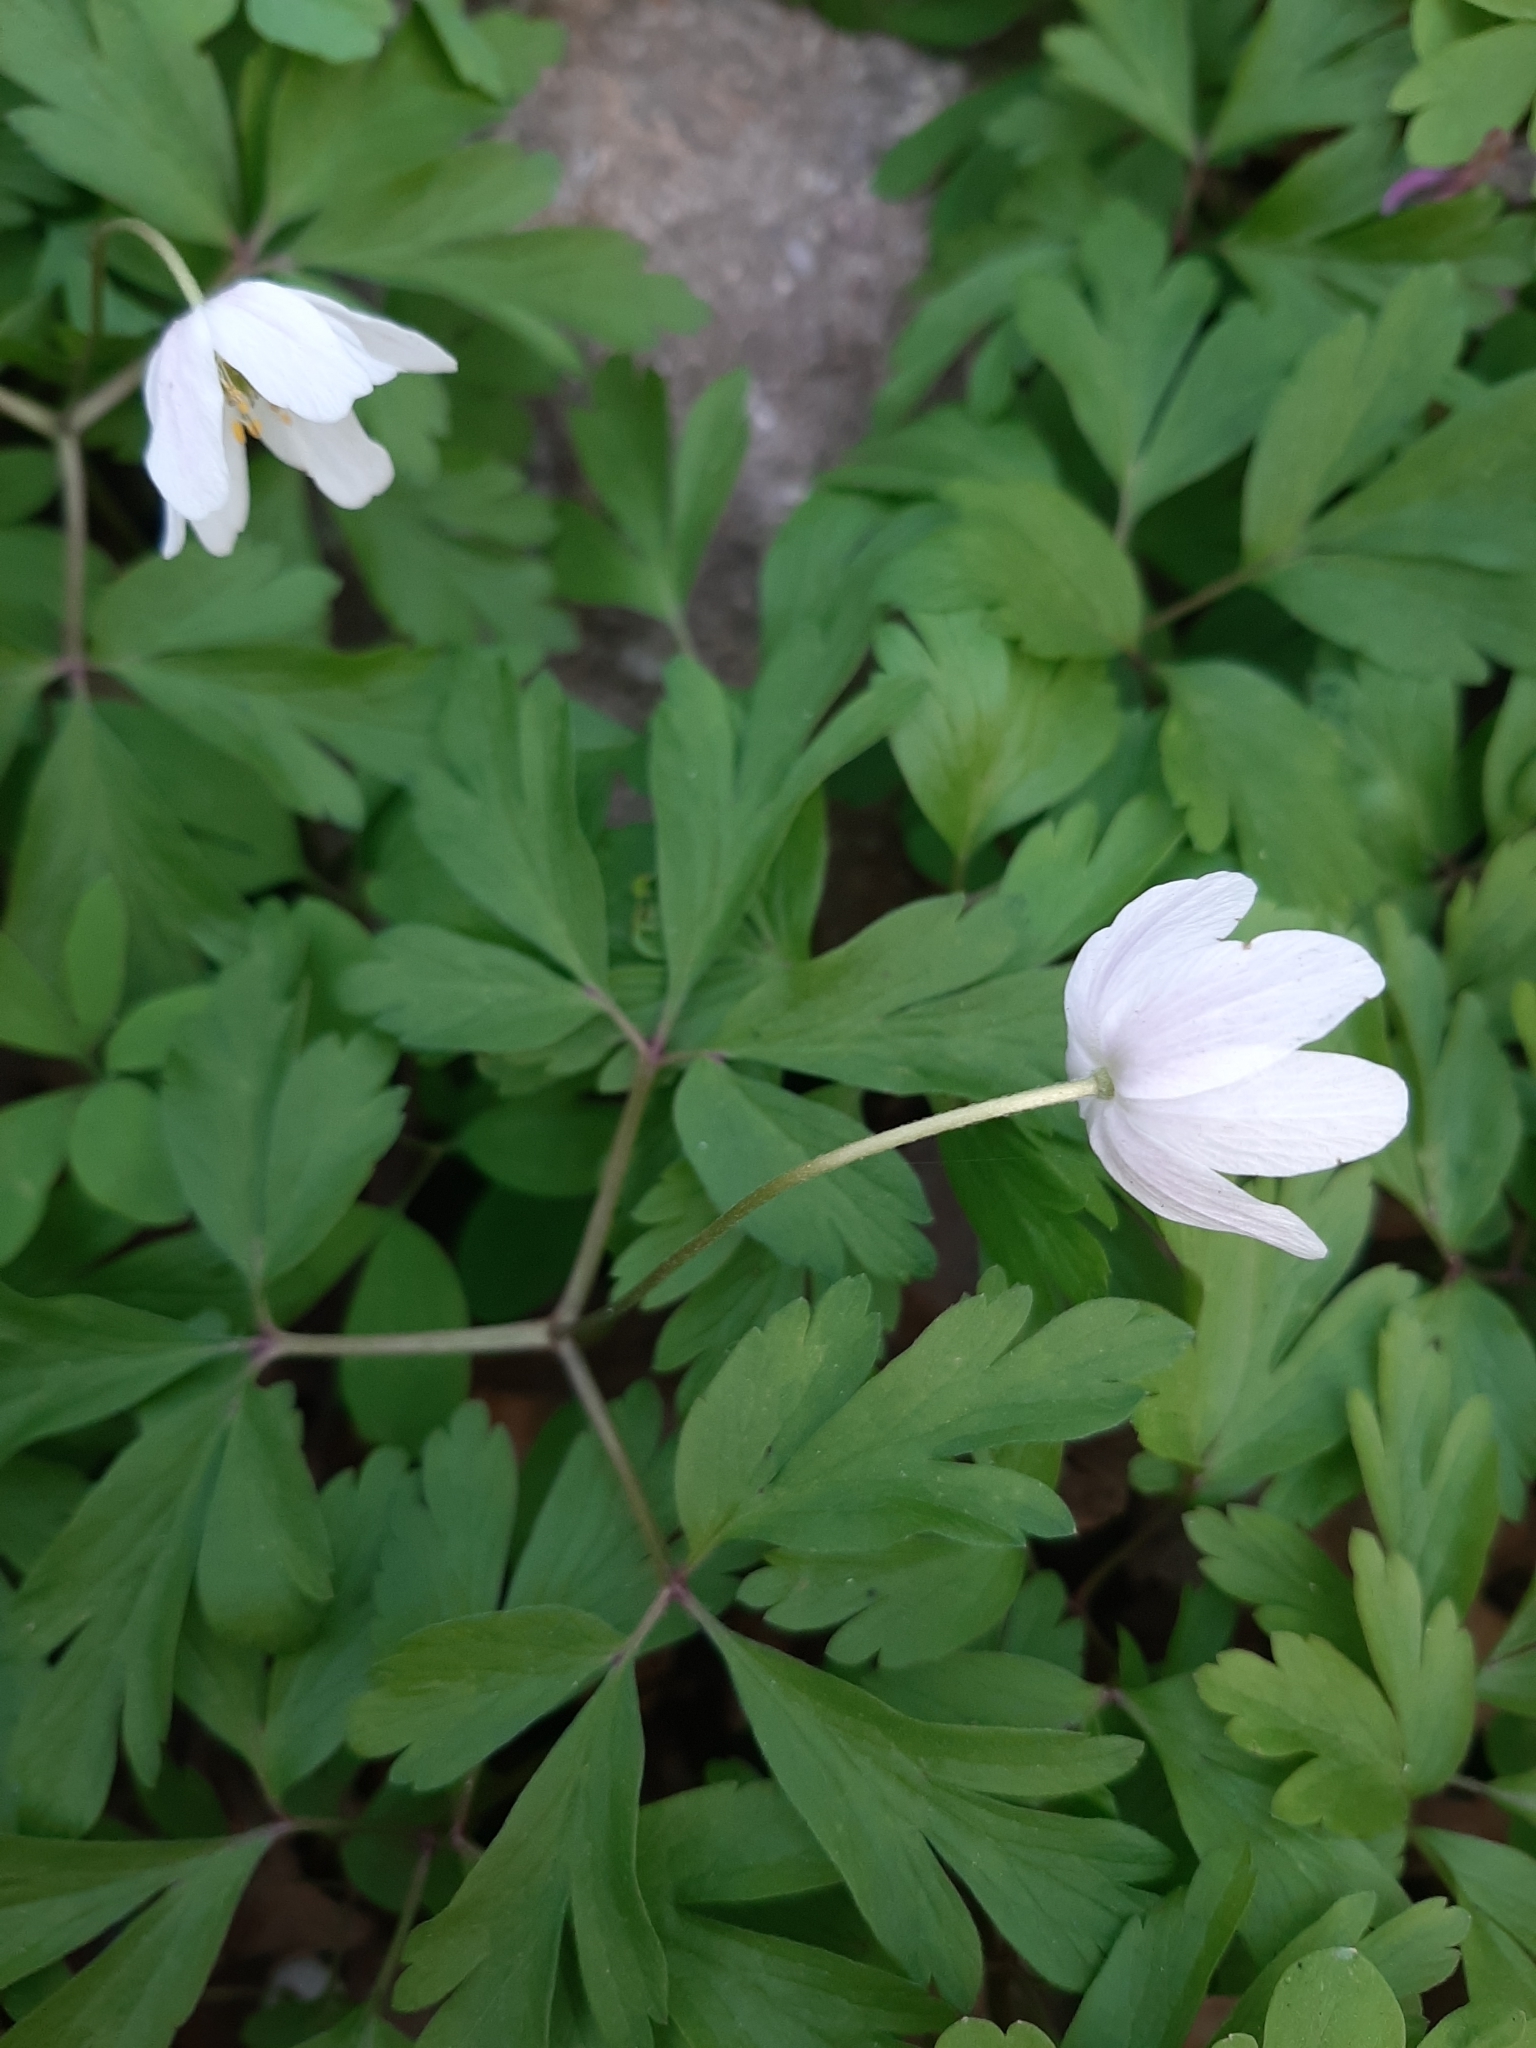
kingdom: Plantae
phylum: Tracheophyta
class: Magnoliopsida
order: Ranunculales
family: Ranunculaceae
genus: Anemone
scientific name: Anemone nemorosa
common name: Wood anemone
